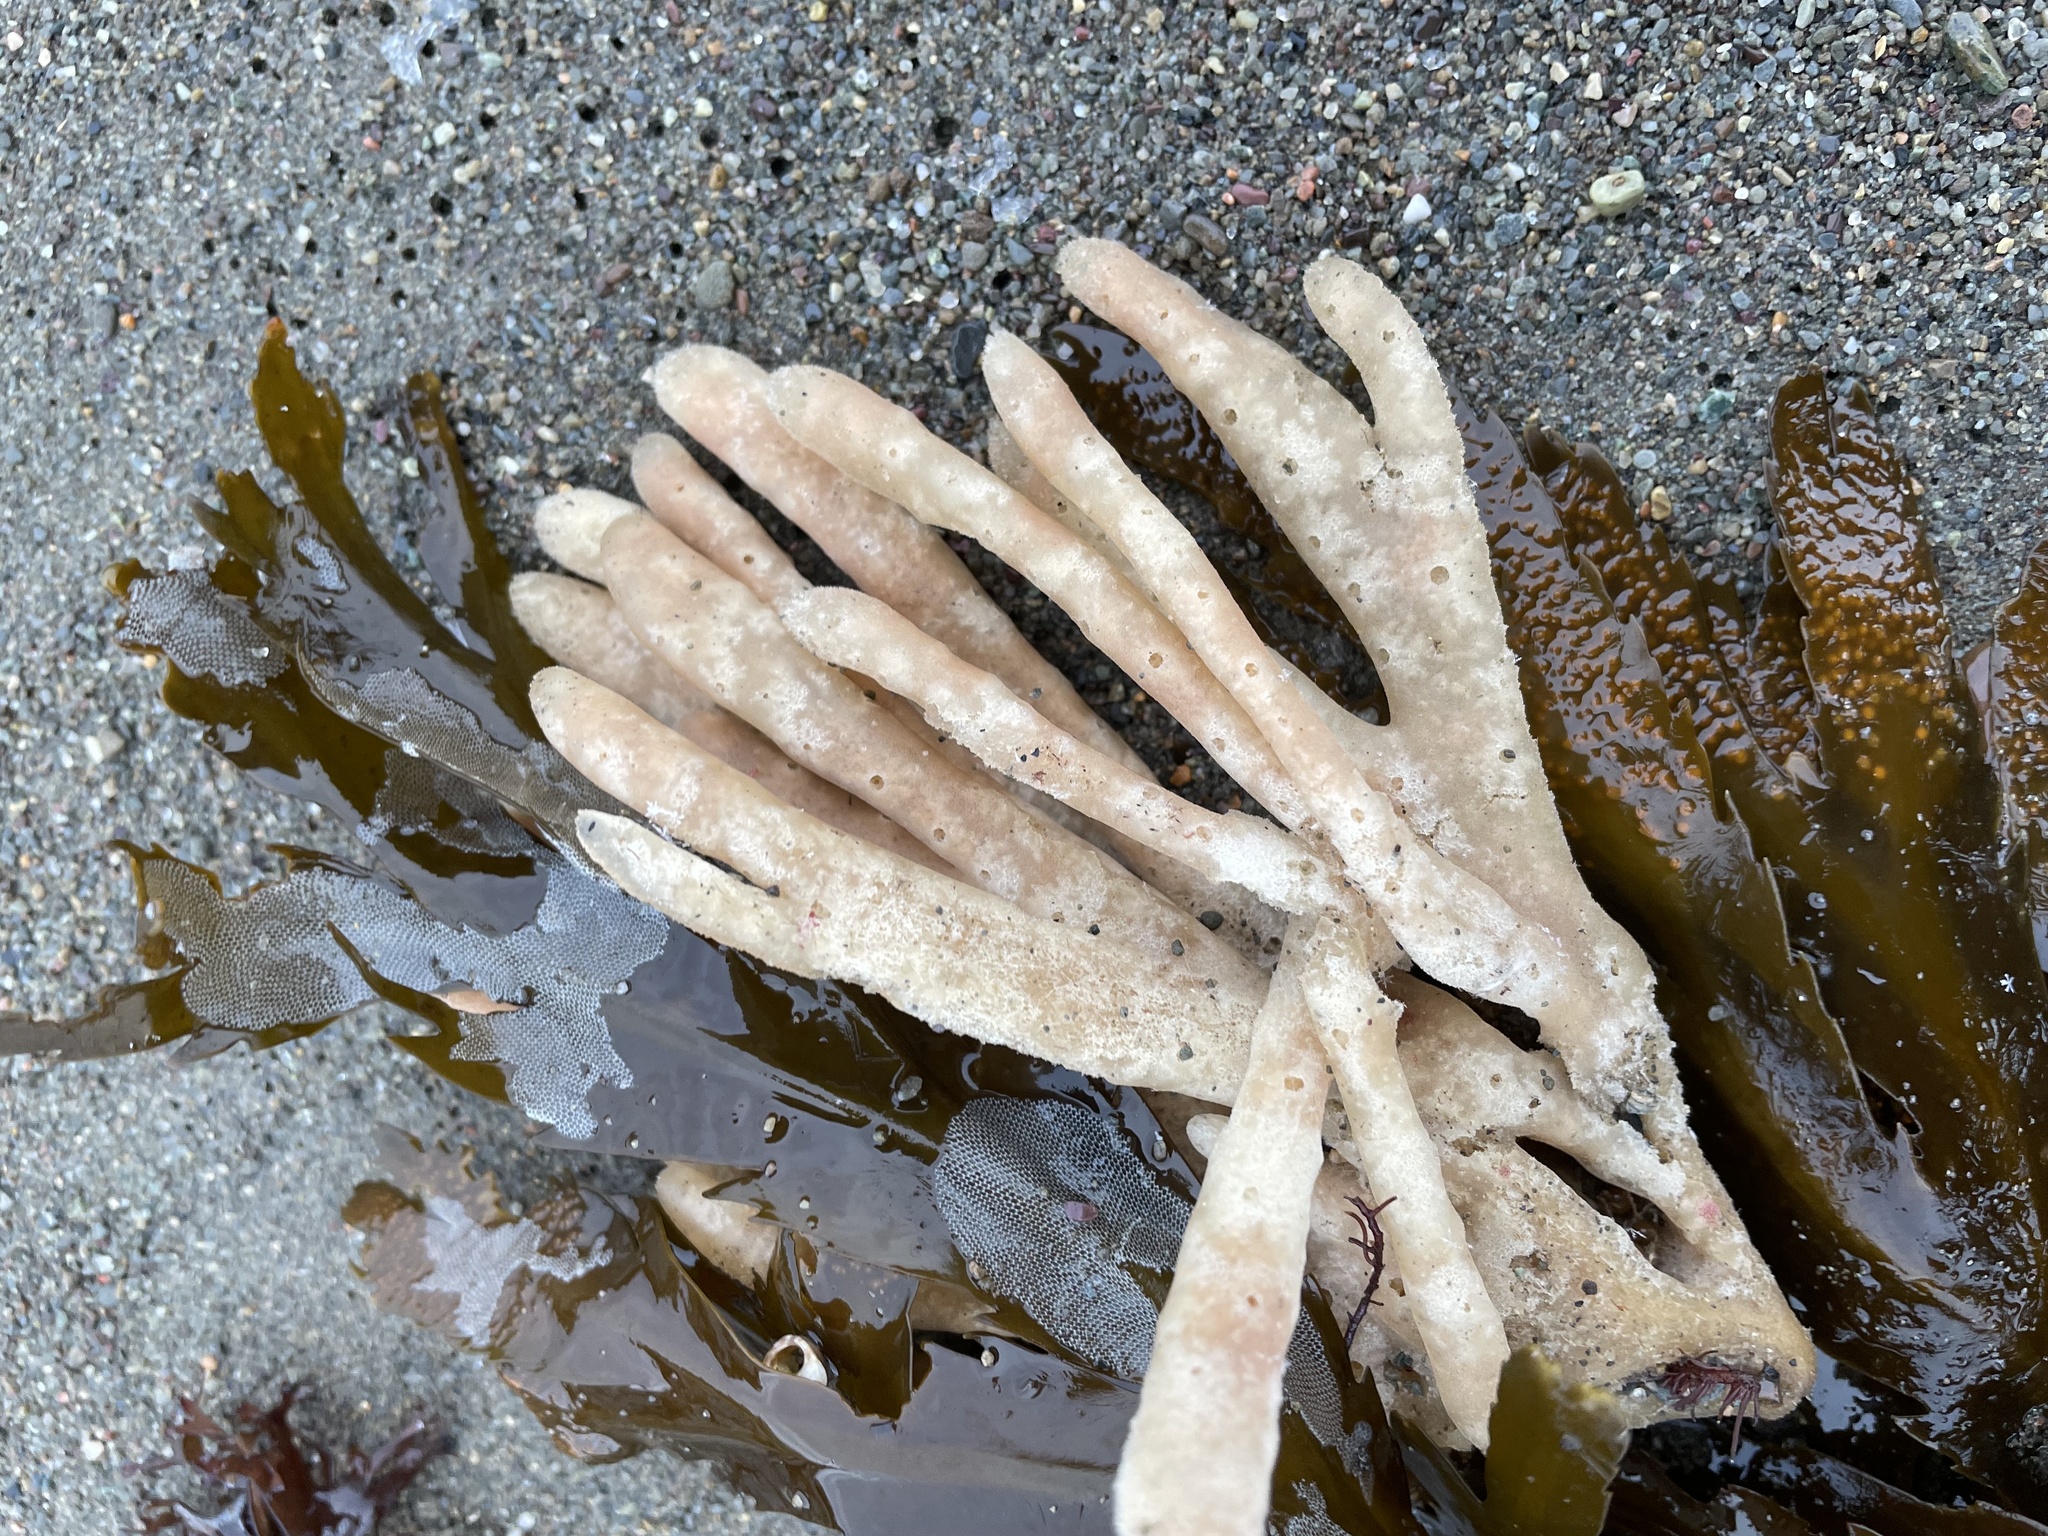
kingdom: Animalia
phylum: Porifera
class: Demospongiae
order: Haplosclerida
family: Chalinidae
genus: Haliclona
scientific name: Haliclona oculata
